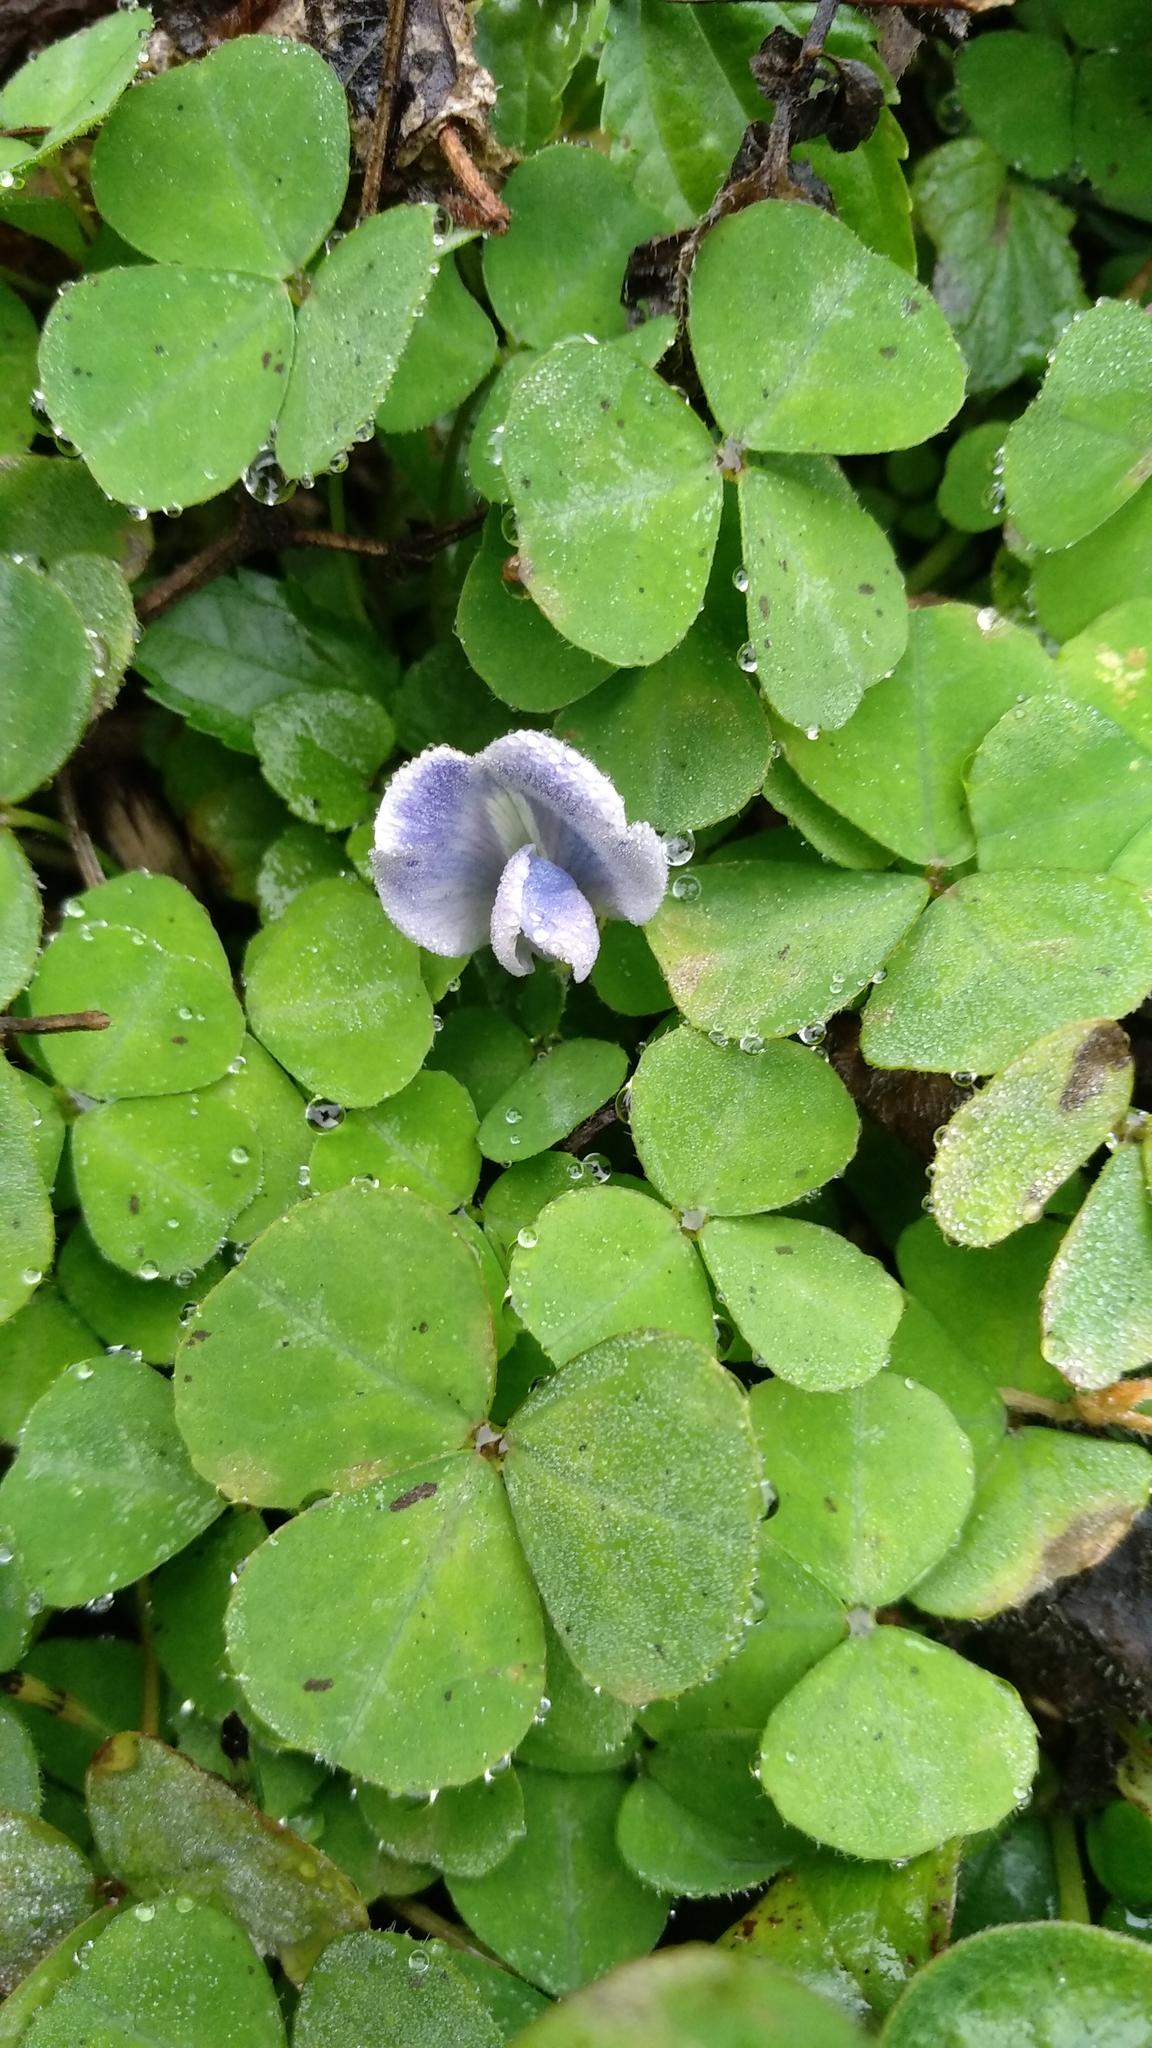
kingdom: Plantae
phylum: Tracheophyta
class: Magnoliopsida
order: Fabales
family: Fabaceae
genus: Parochetus
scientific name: Parochetus communis
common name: Blue oxalis
